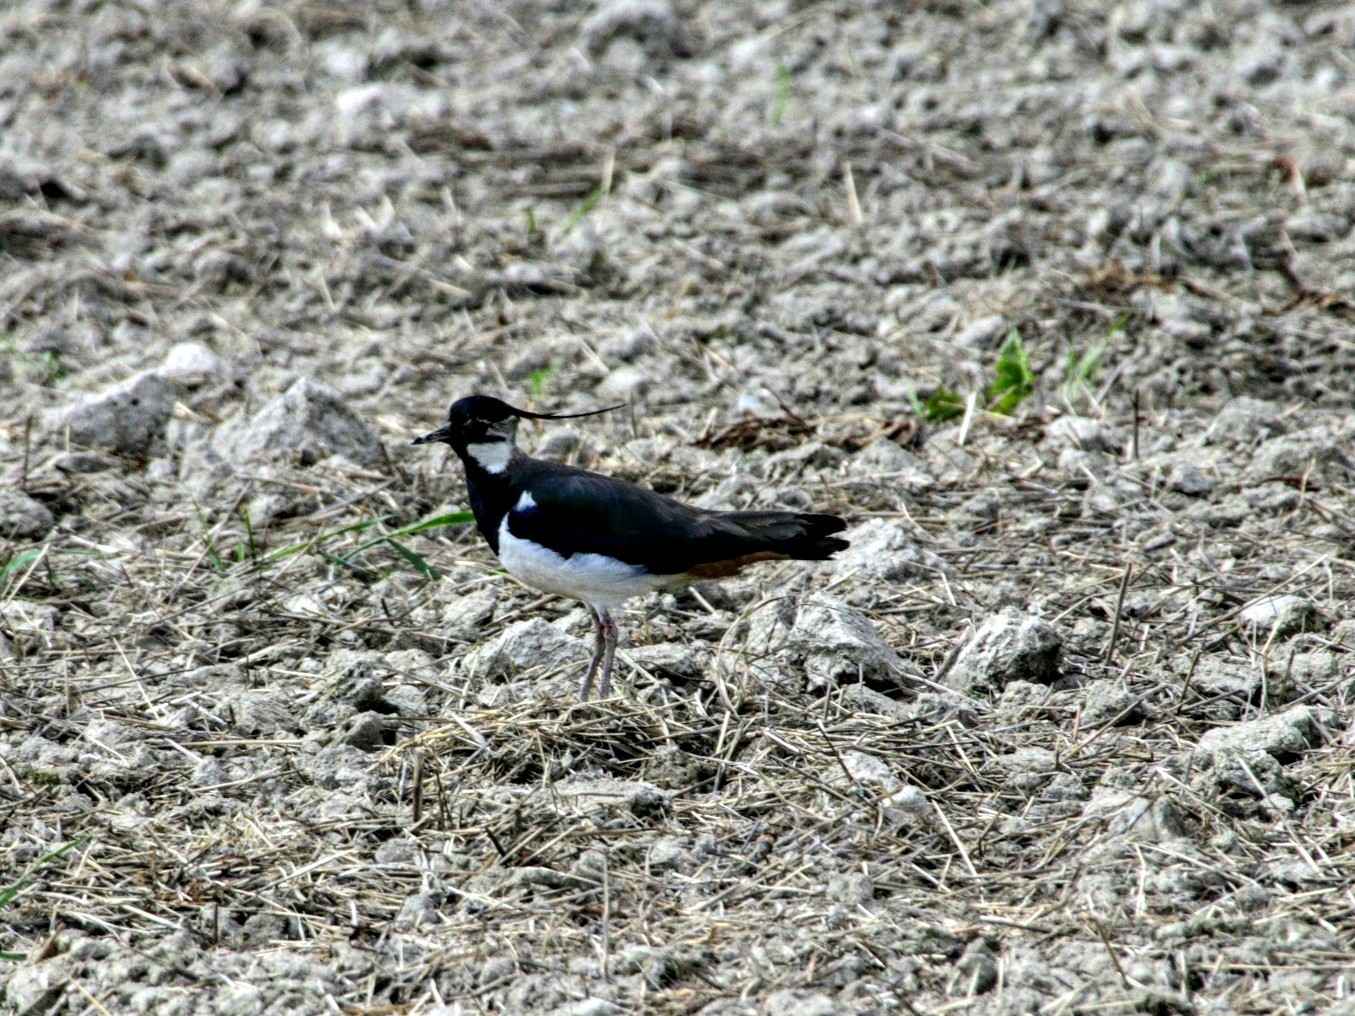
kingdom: Animalia
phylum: Chordata
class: Aves
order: Charadriiformes
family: Charadriidae
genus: Vanellus
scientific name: Vanellus vanellus
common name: Northern lapwing
